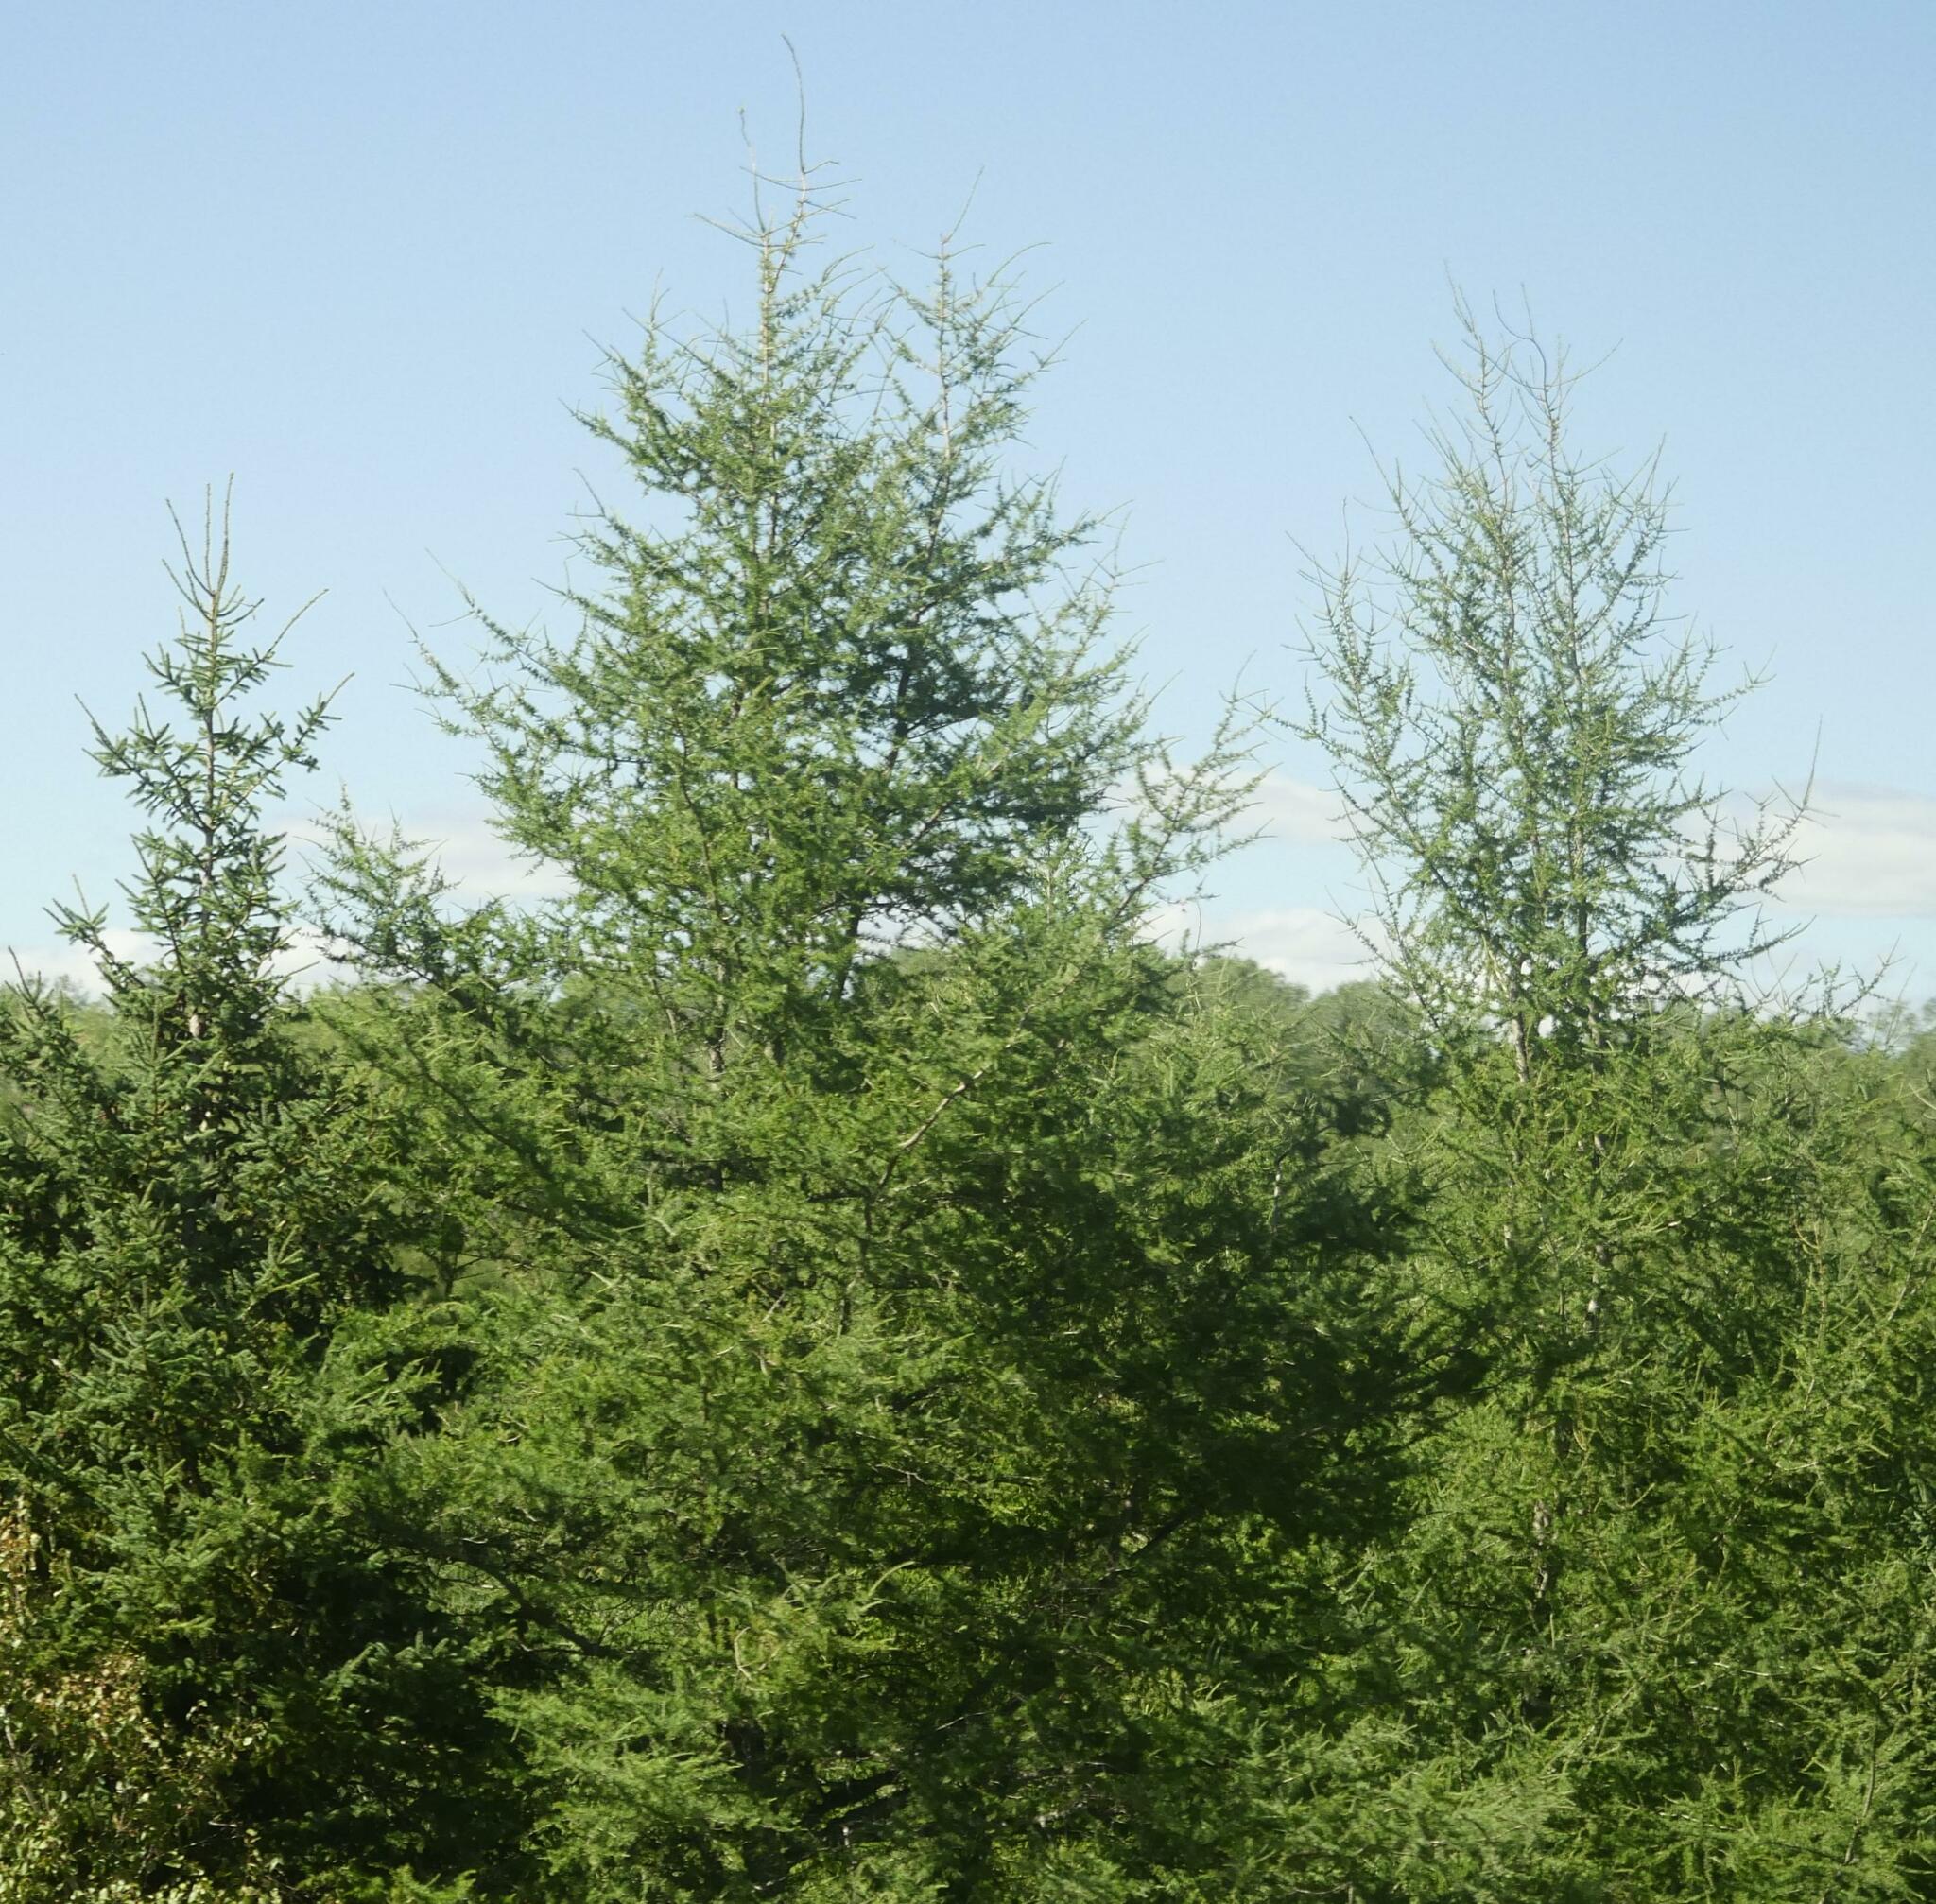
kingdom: Plantae
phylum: Tracheophyta
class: Pinopsida
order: Pinales
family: Pinaceae
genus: Larix
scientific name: Larix laricina
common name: American larch
